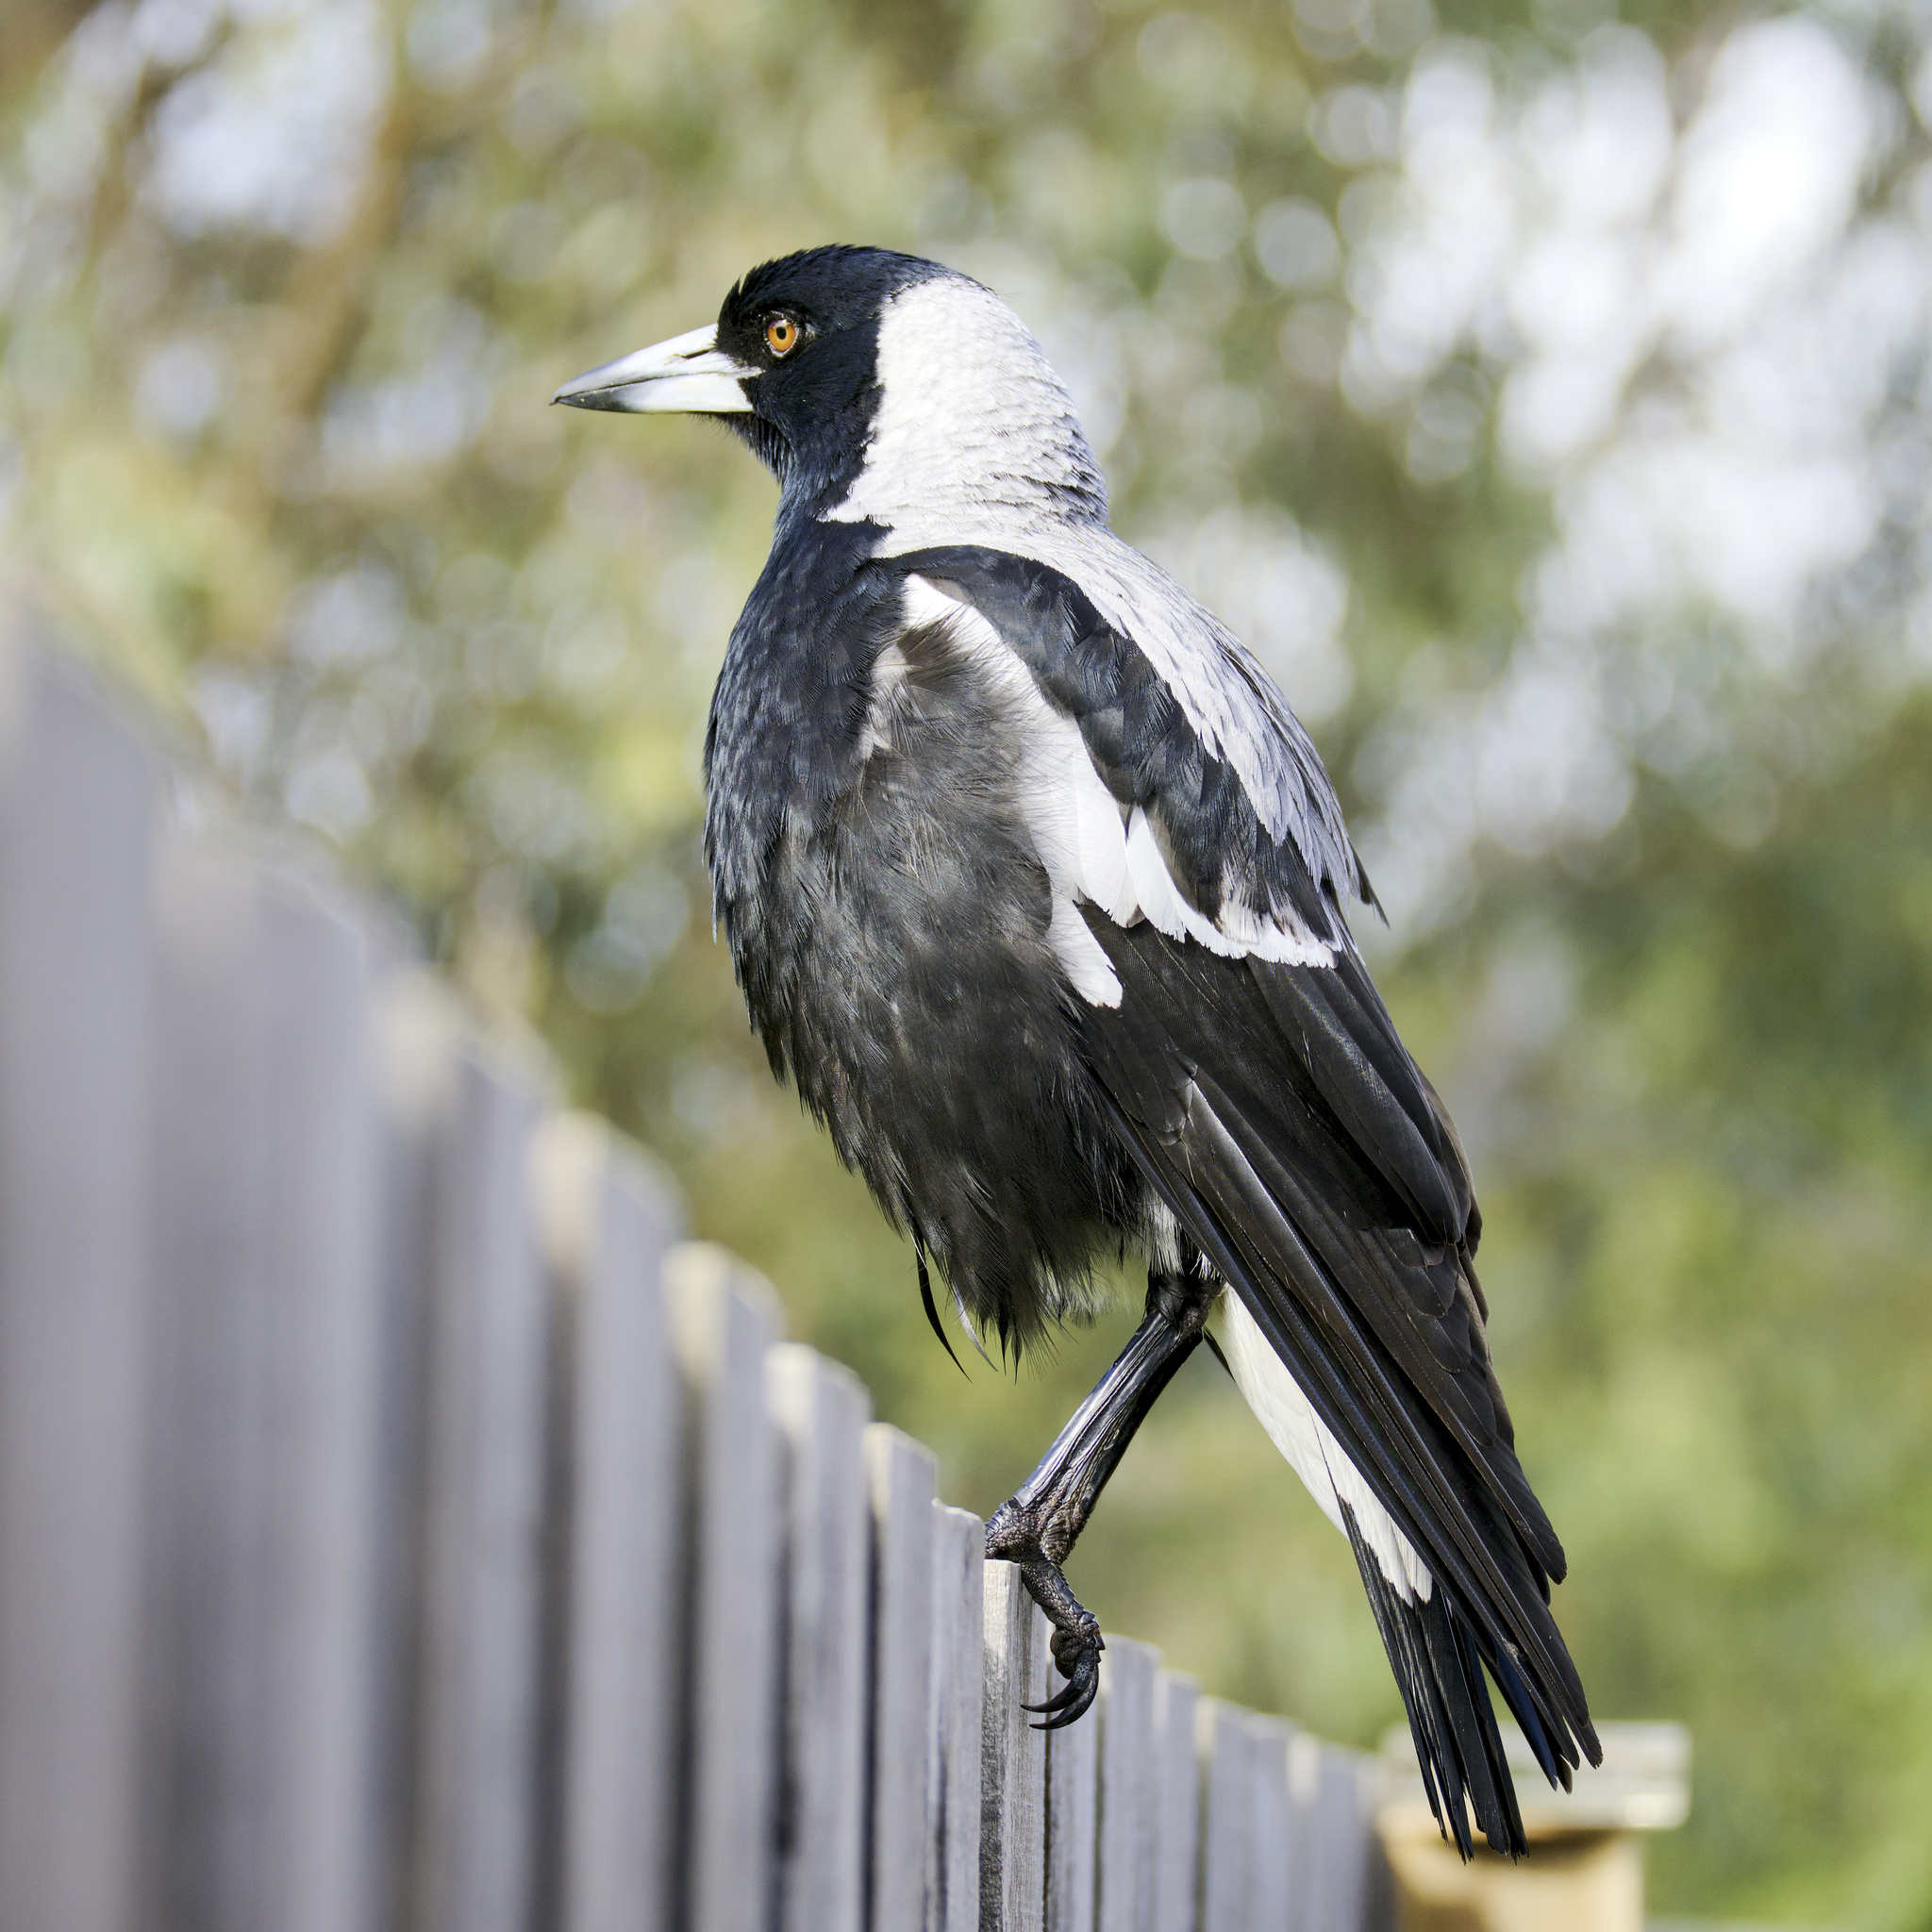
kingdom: Animalia
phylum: Chordata
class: Aves
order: Passeriformes
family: Cracticidae
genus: Gymnorhina
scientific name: Gymnorhina tibicen
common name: Australian magpie
